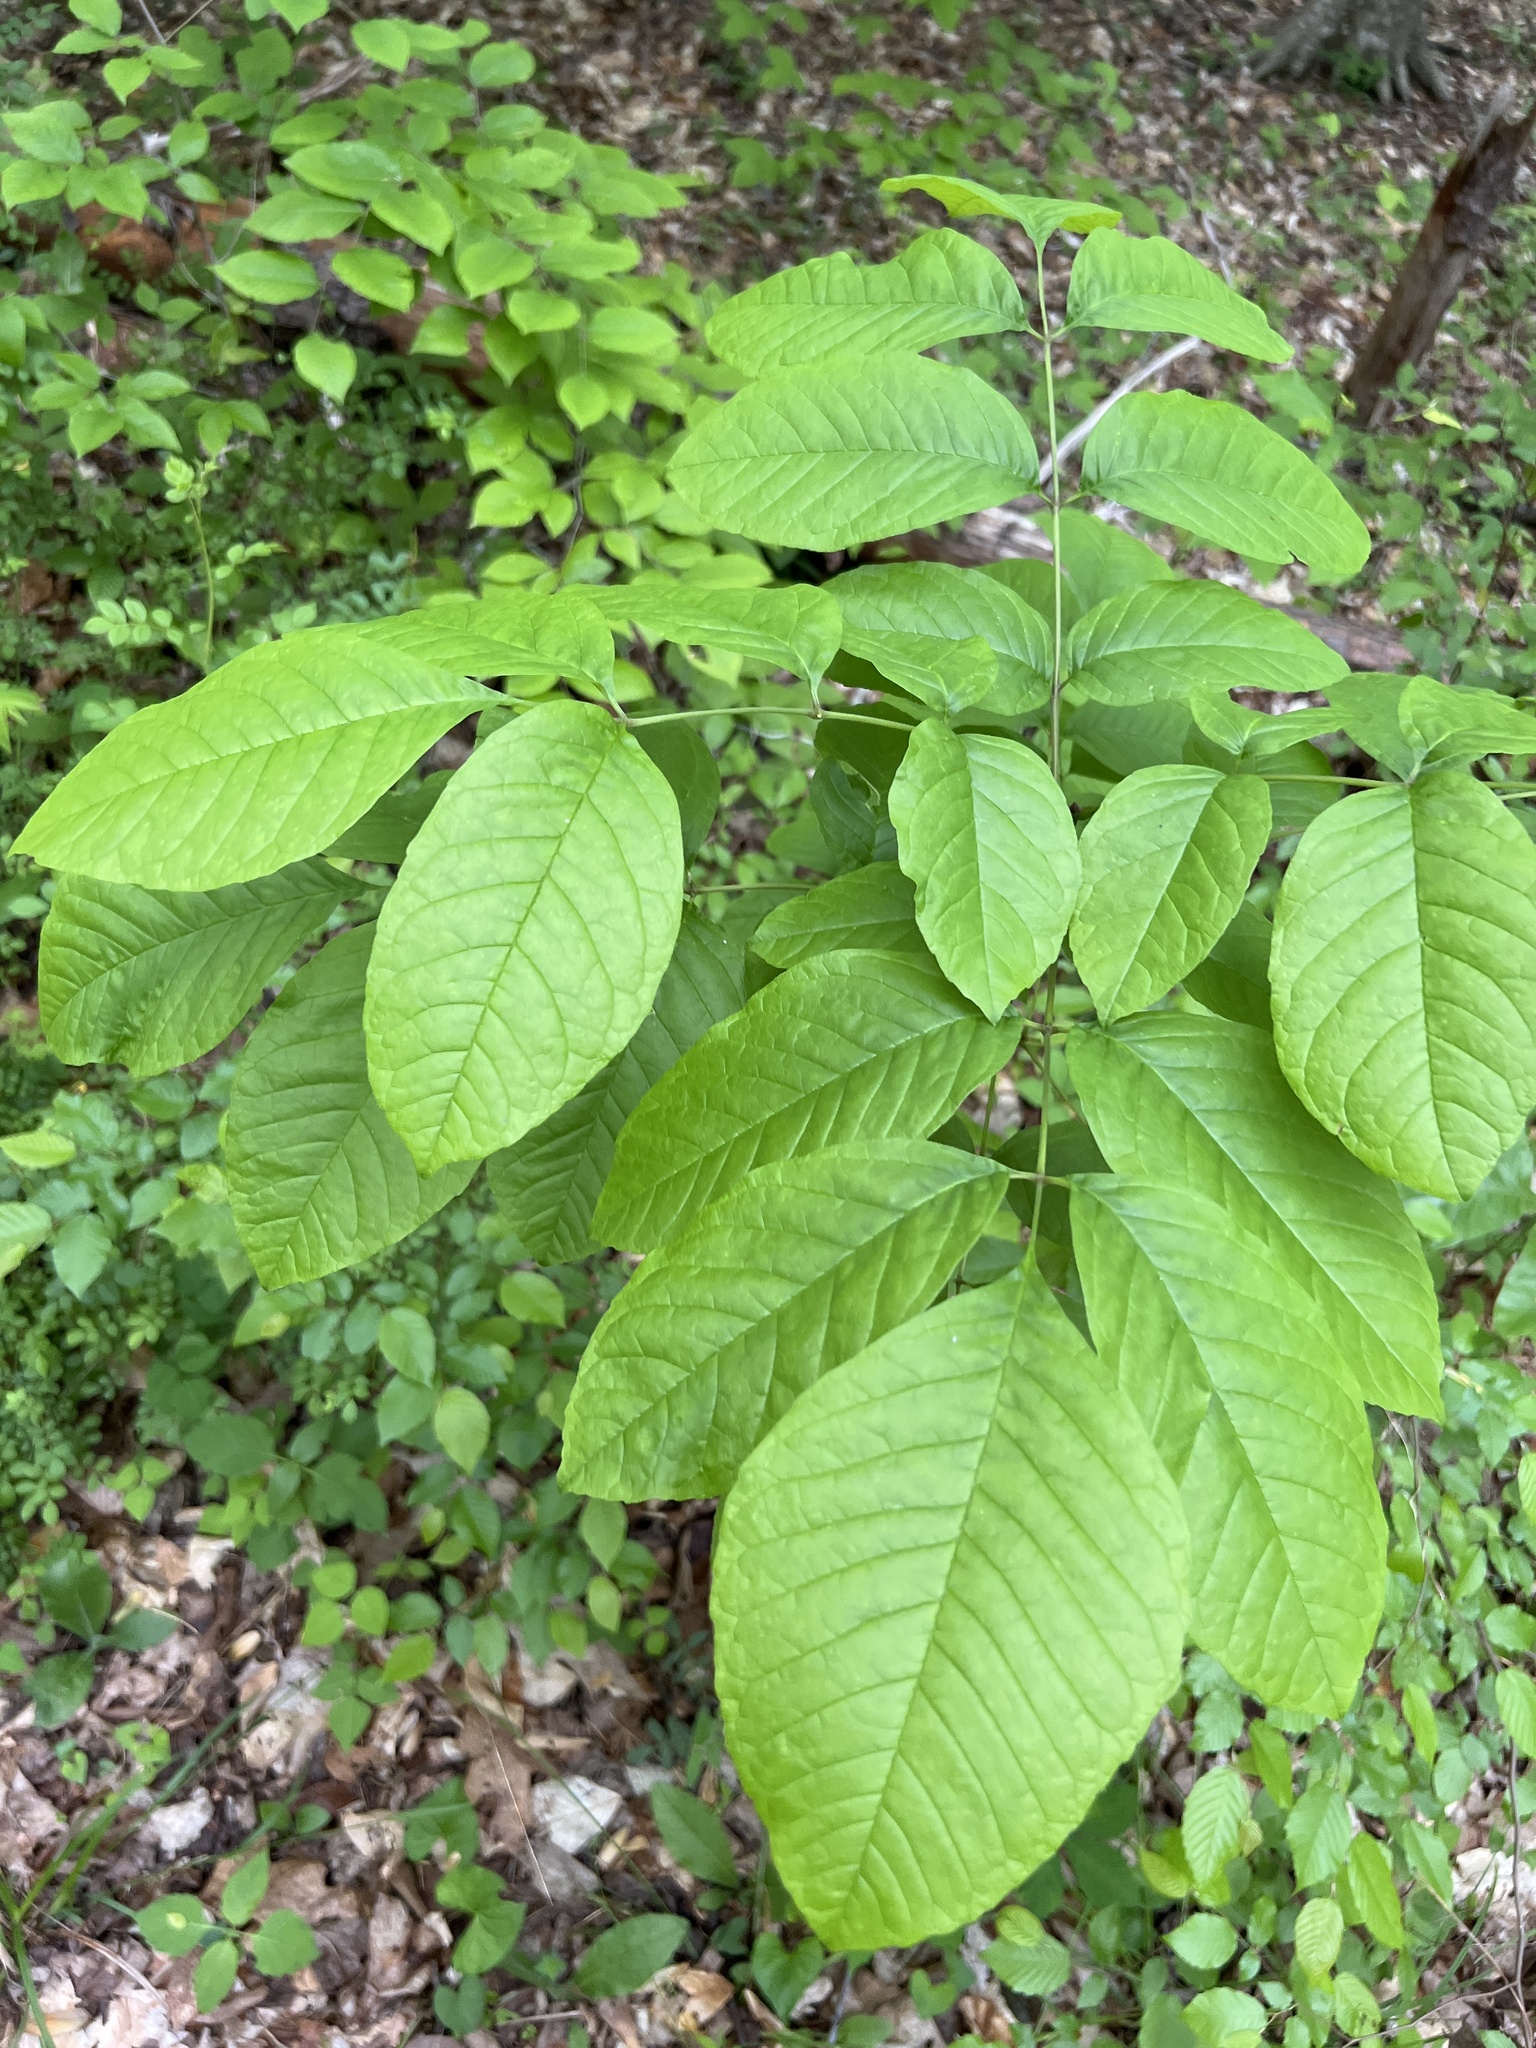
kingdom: Plantae
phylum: Tracheophyta
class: Magnoliopsida
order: Lamiales
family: Oleaceae
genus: Fraxinus
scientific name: Fraxinus americana
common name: White ash
